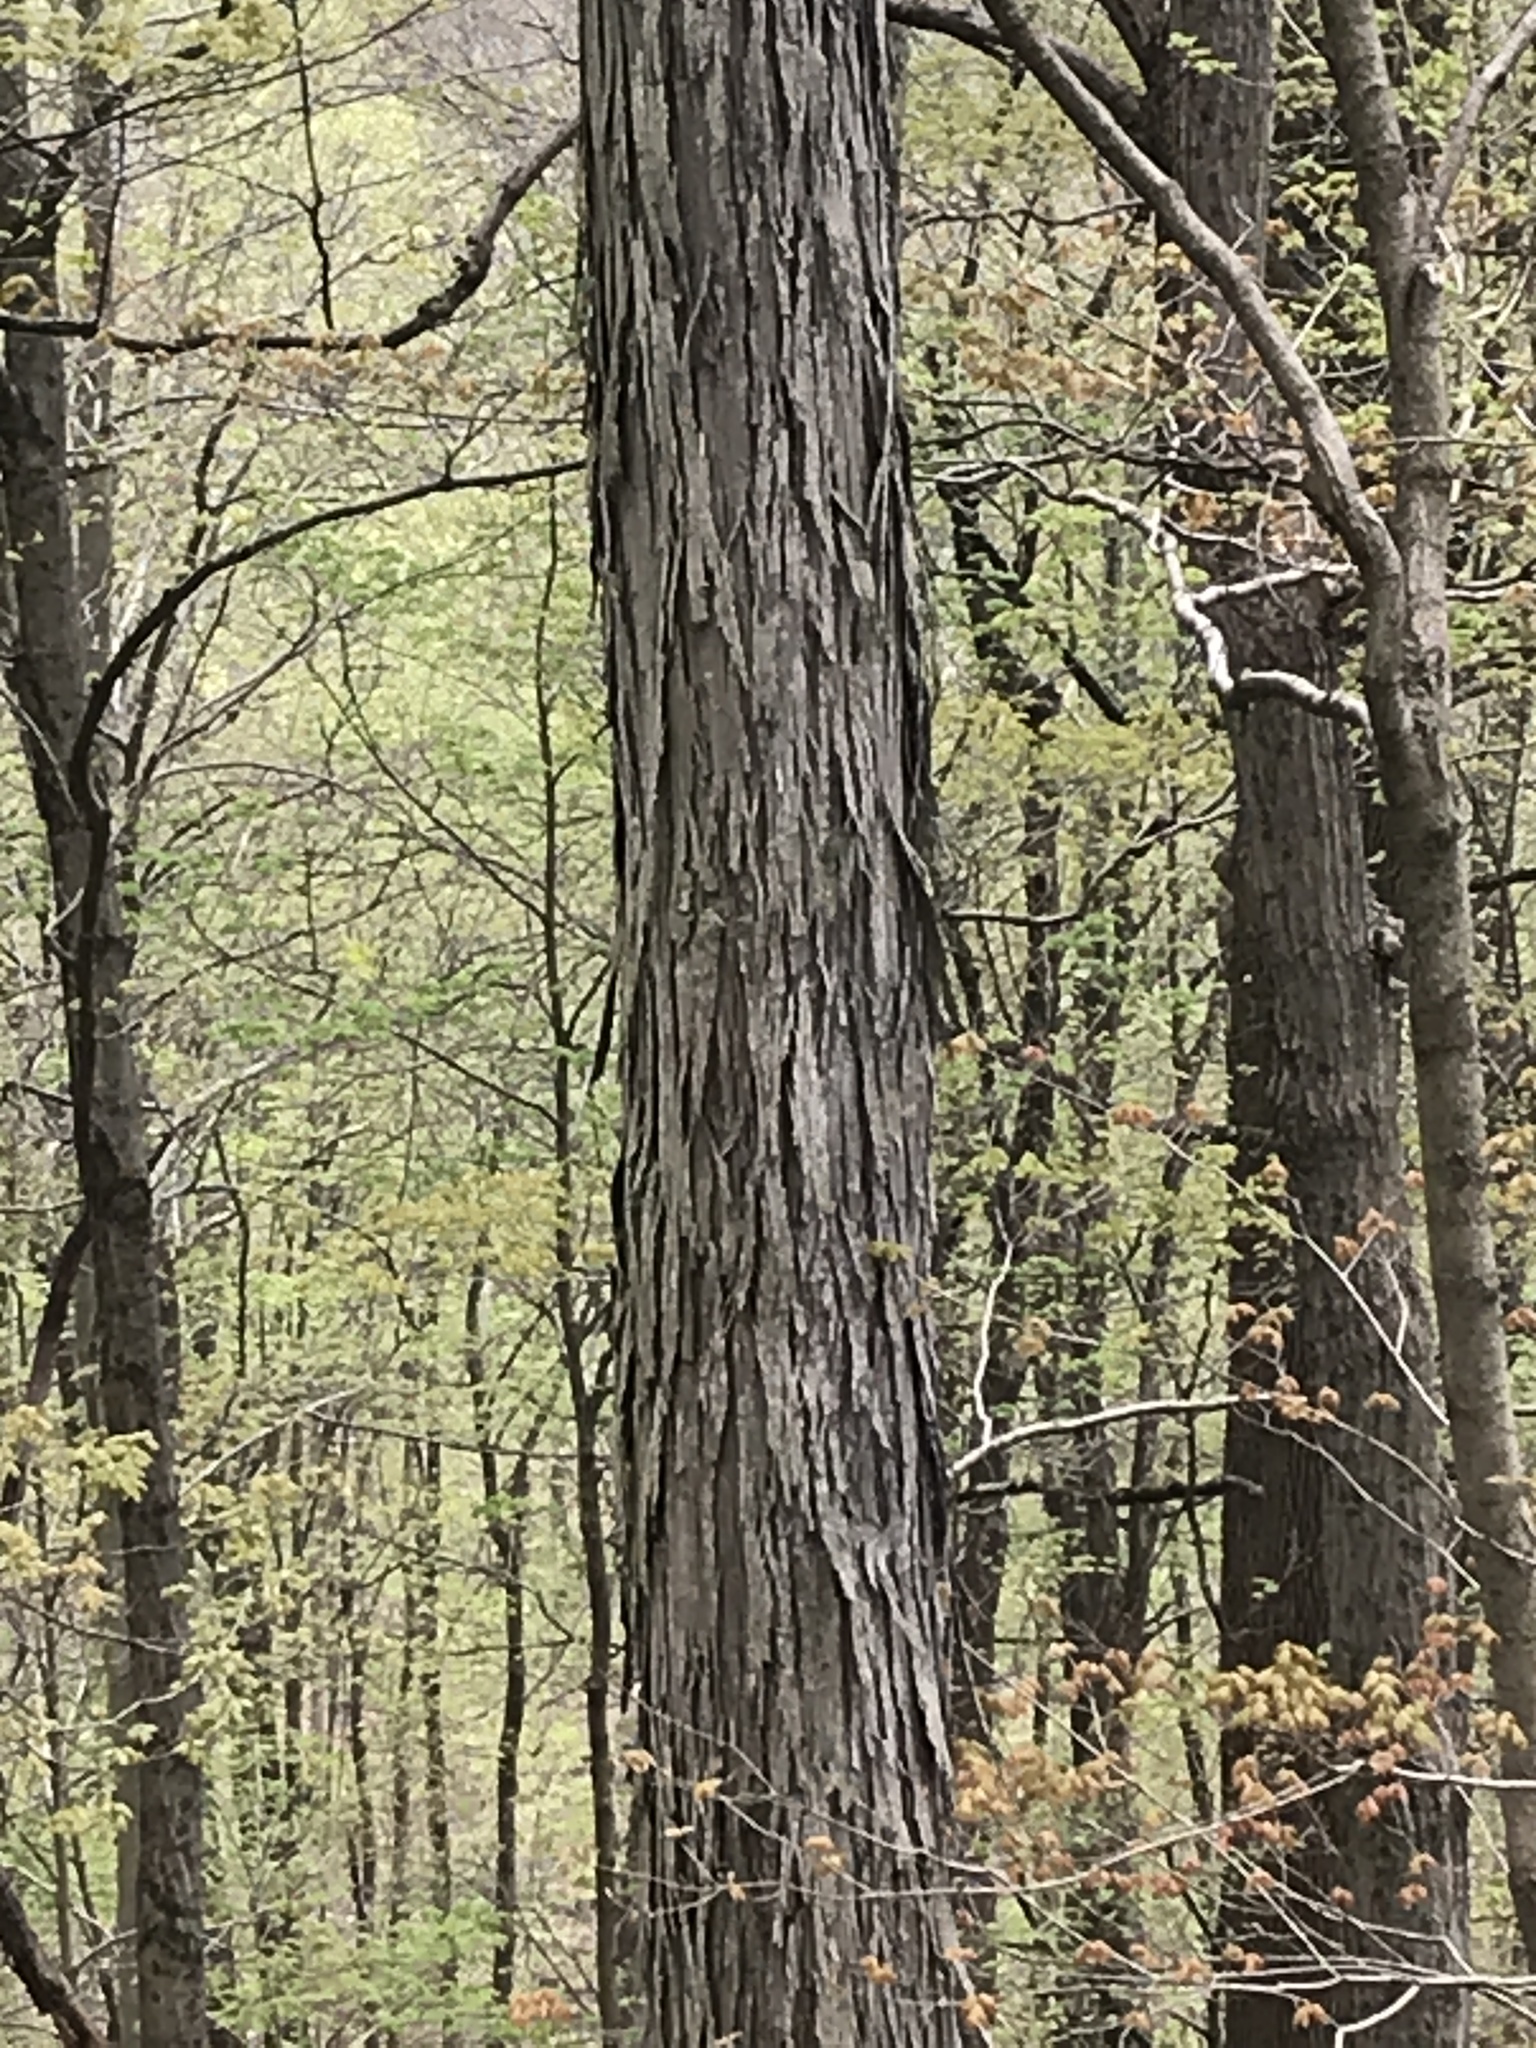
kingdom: Plantae
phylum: Tracheophyta
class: Magnoliopsida
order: Fagales
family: Juglandaceae
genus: Carya
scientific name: Carya ovata
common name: Shagbark hickory
